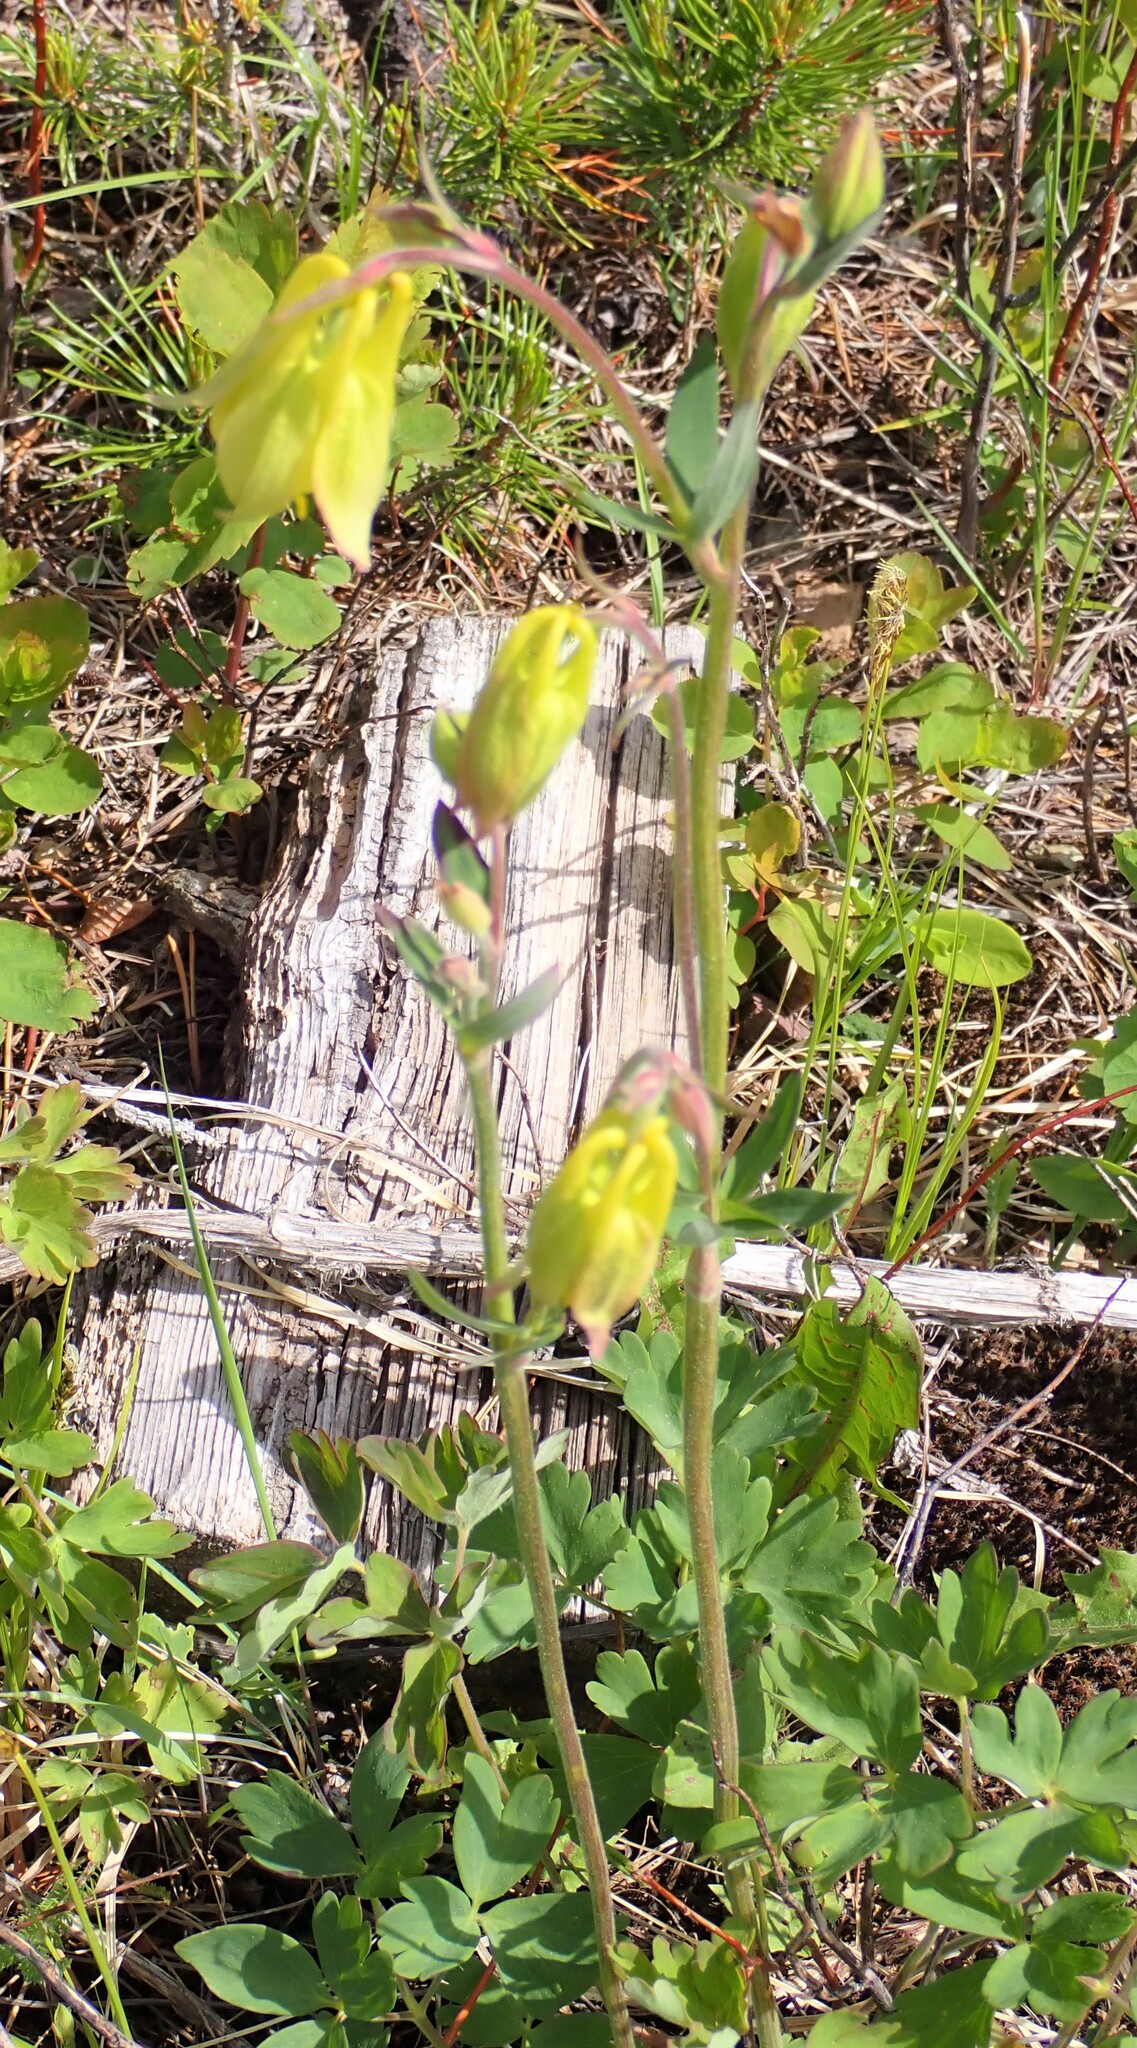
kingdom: Plantae
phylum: Tracheophyta
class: Magnoliopsida
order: Ranunculales
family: Ranunculaceae
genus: Aquilegia
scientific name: Aquilegia flavescens
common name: Yellow columbine
